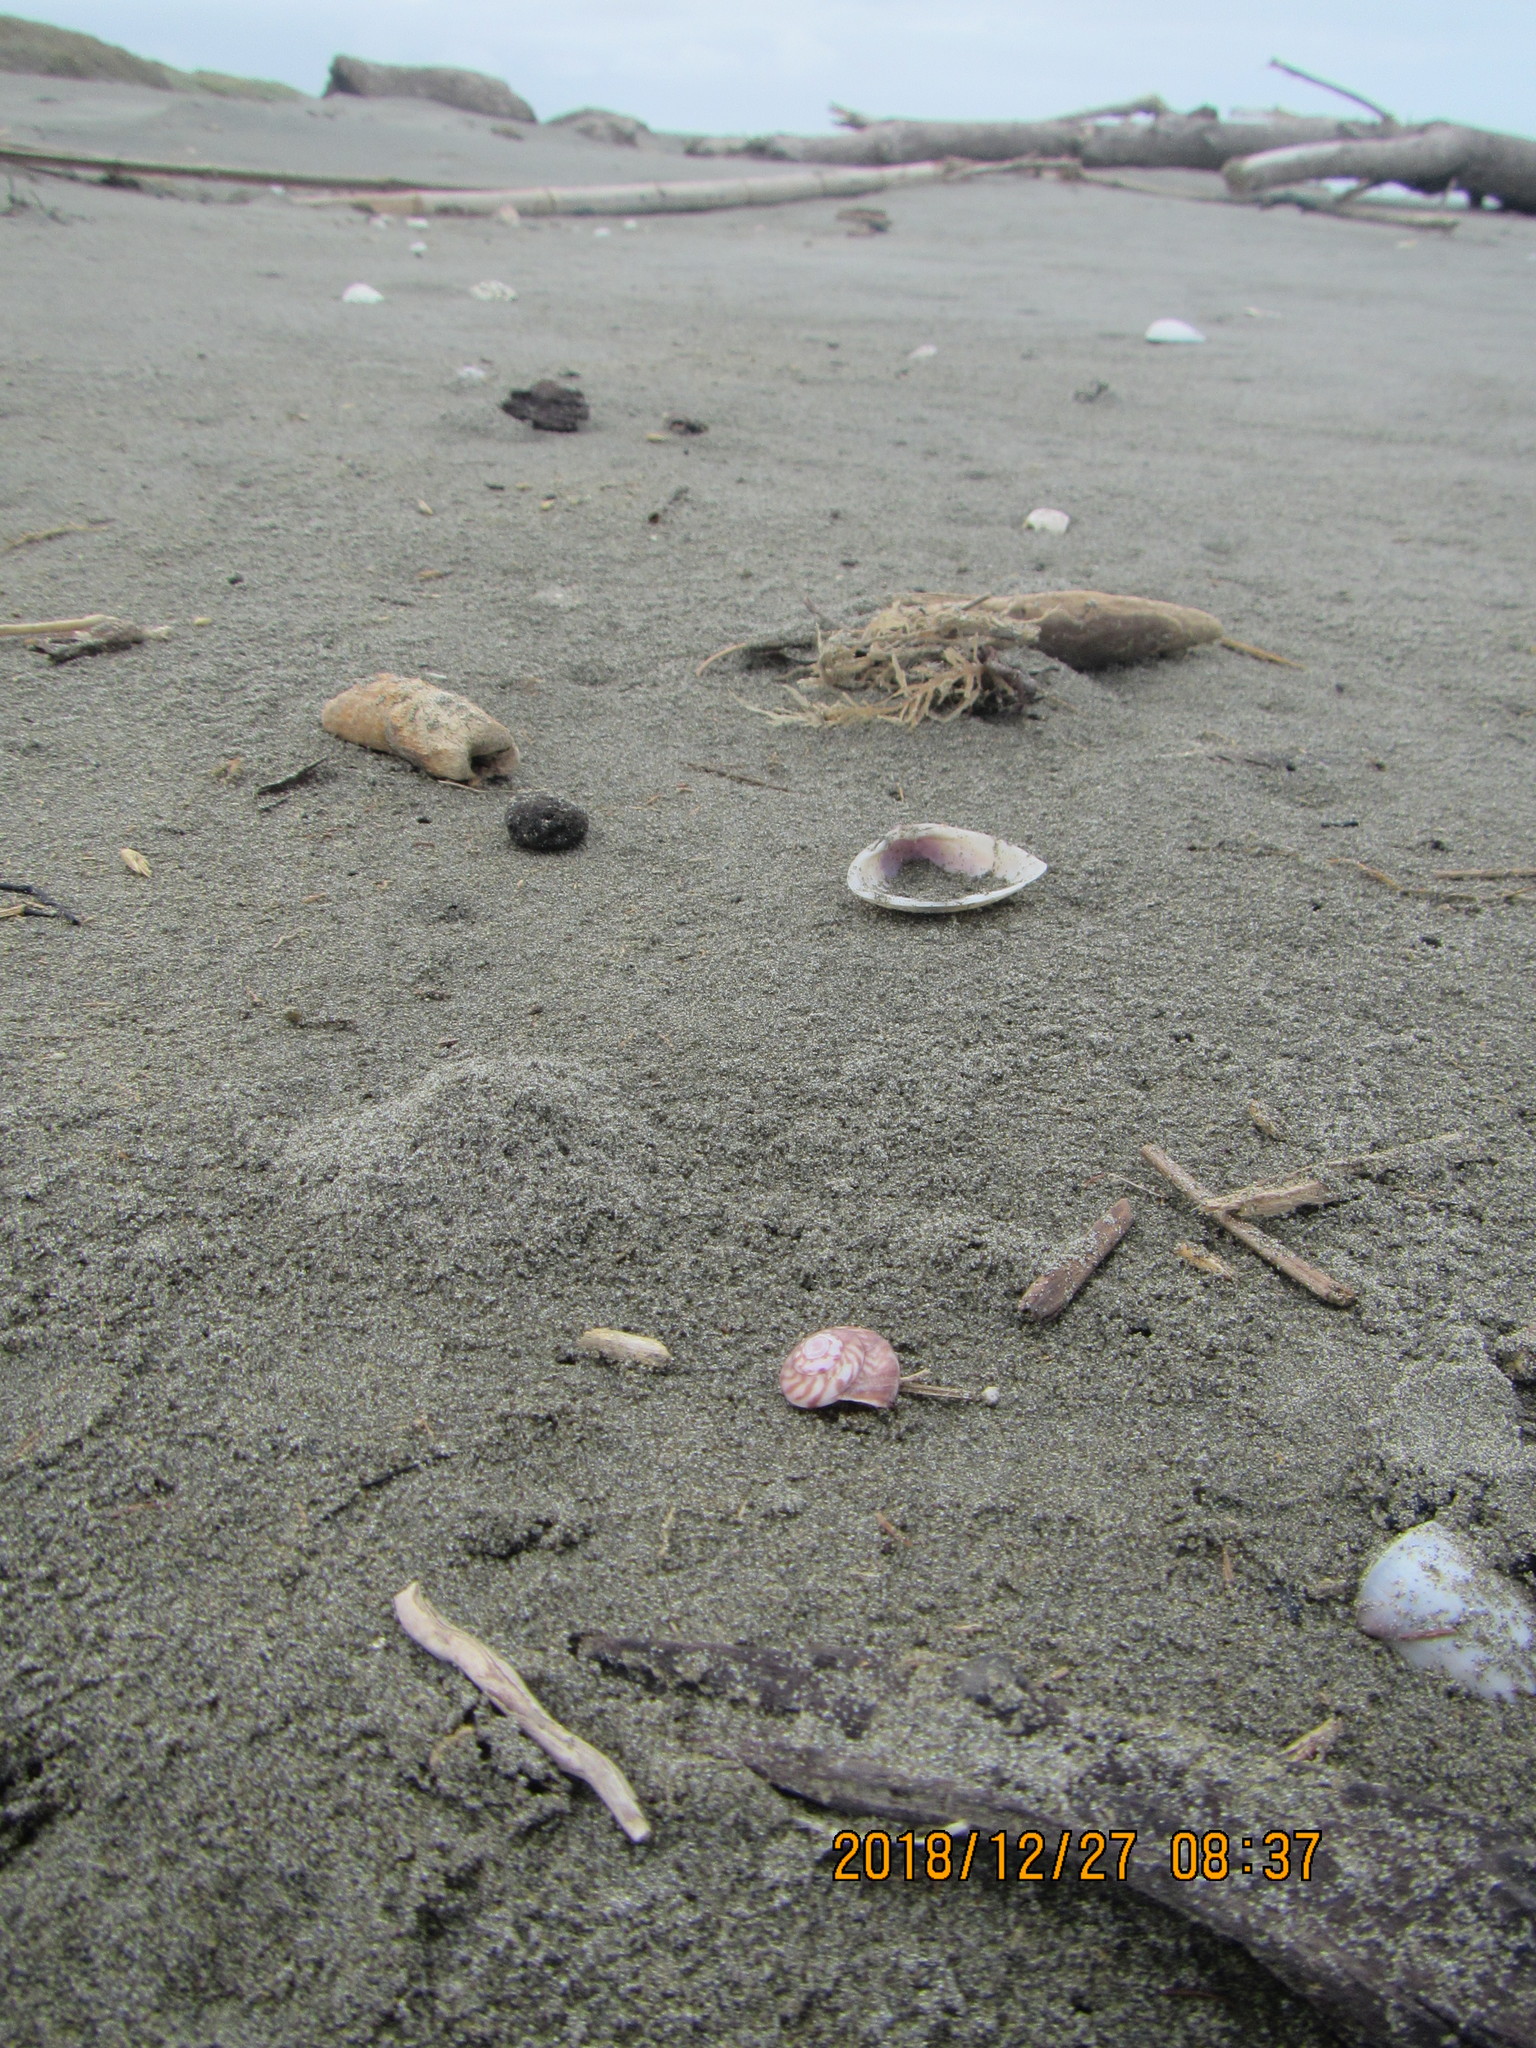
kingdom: Animalia
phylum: Mollusca
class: Gastropoda
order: Trochida
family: Trochidae
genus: Zethalia
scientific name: Zethalia zelandica
